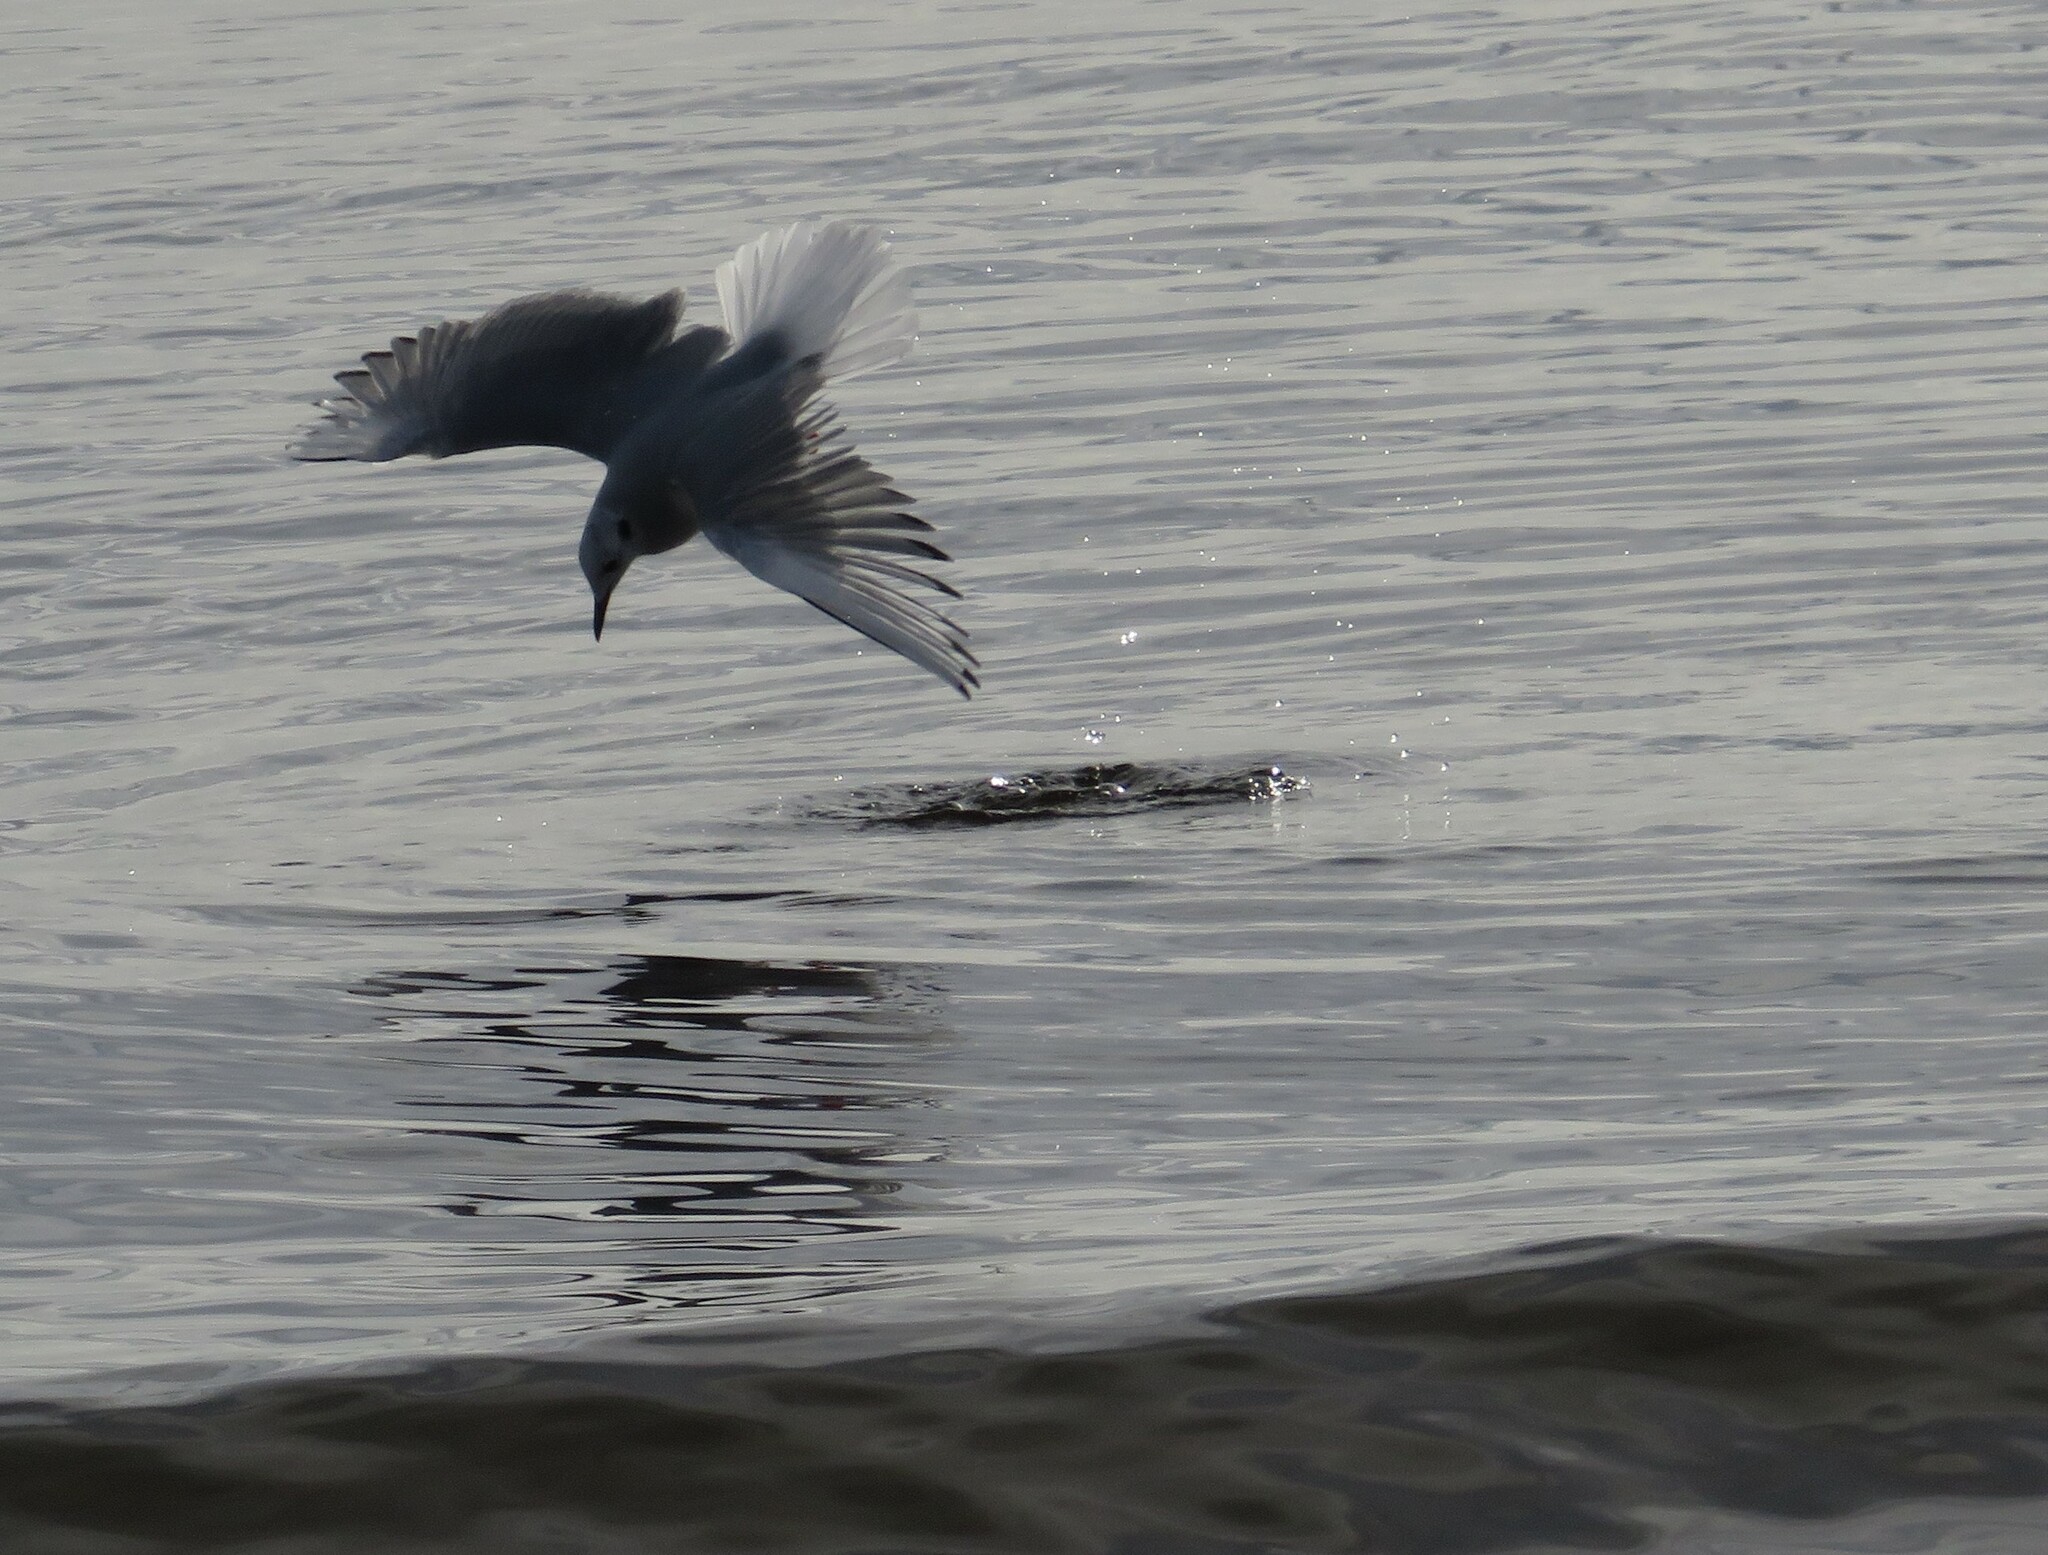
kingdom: Animalia
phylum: Chordata
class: Aves
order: Charadriiformes
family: Laridae
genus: Chroicocephalus
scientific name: Chroicocephalus philadelphia
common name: Bonaparte's gull
